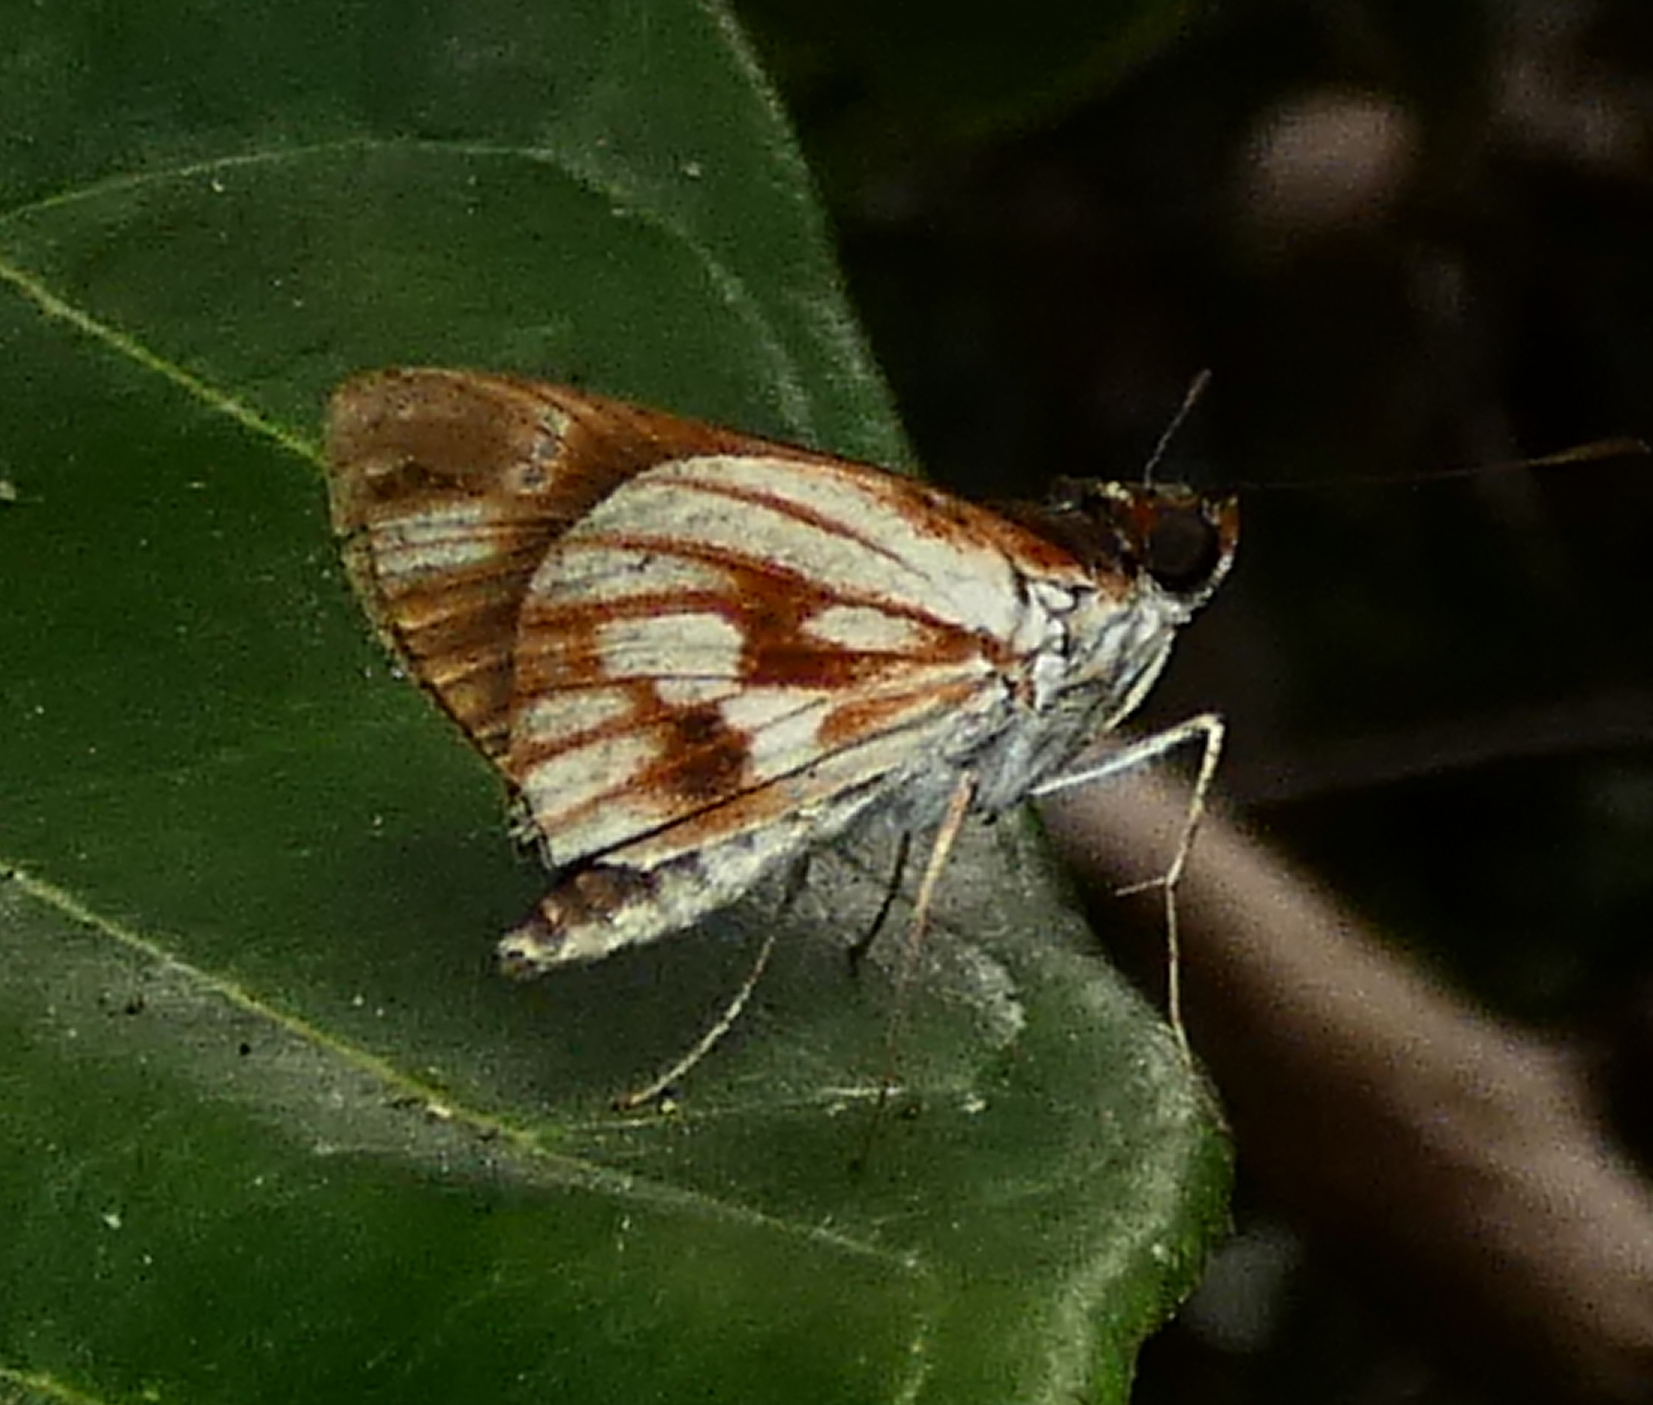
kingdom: Animalia
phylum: Arthropoda
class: Insecta
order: Lepidoptera
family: Hesperiidae
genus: Troyus
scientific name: Troyus fantasos
